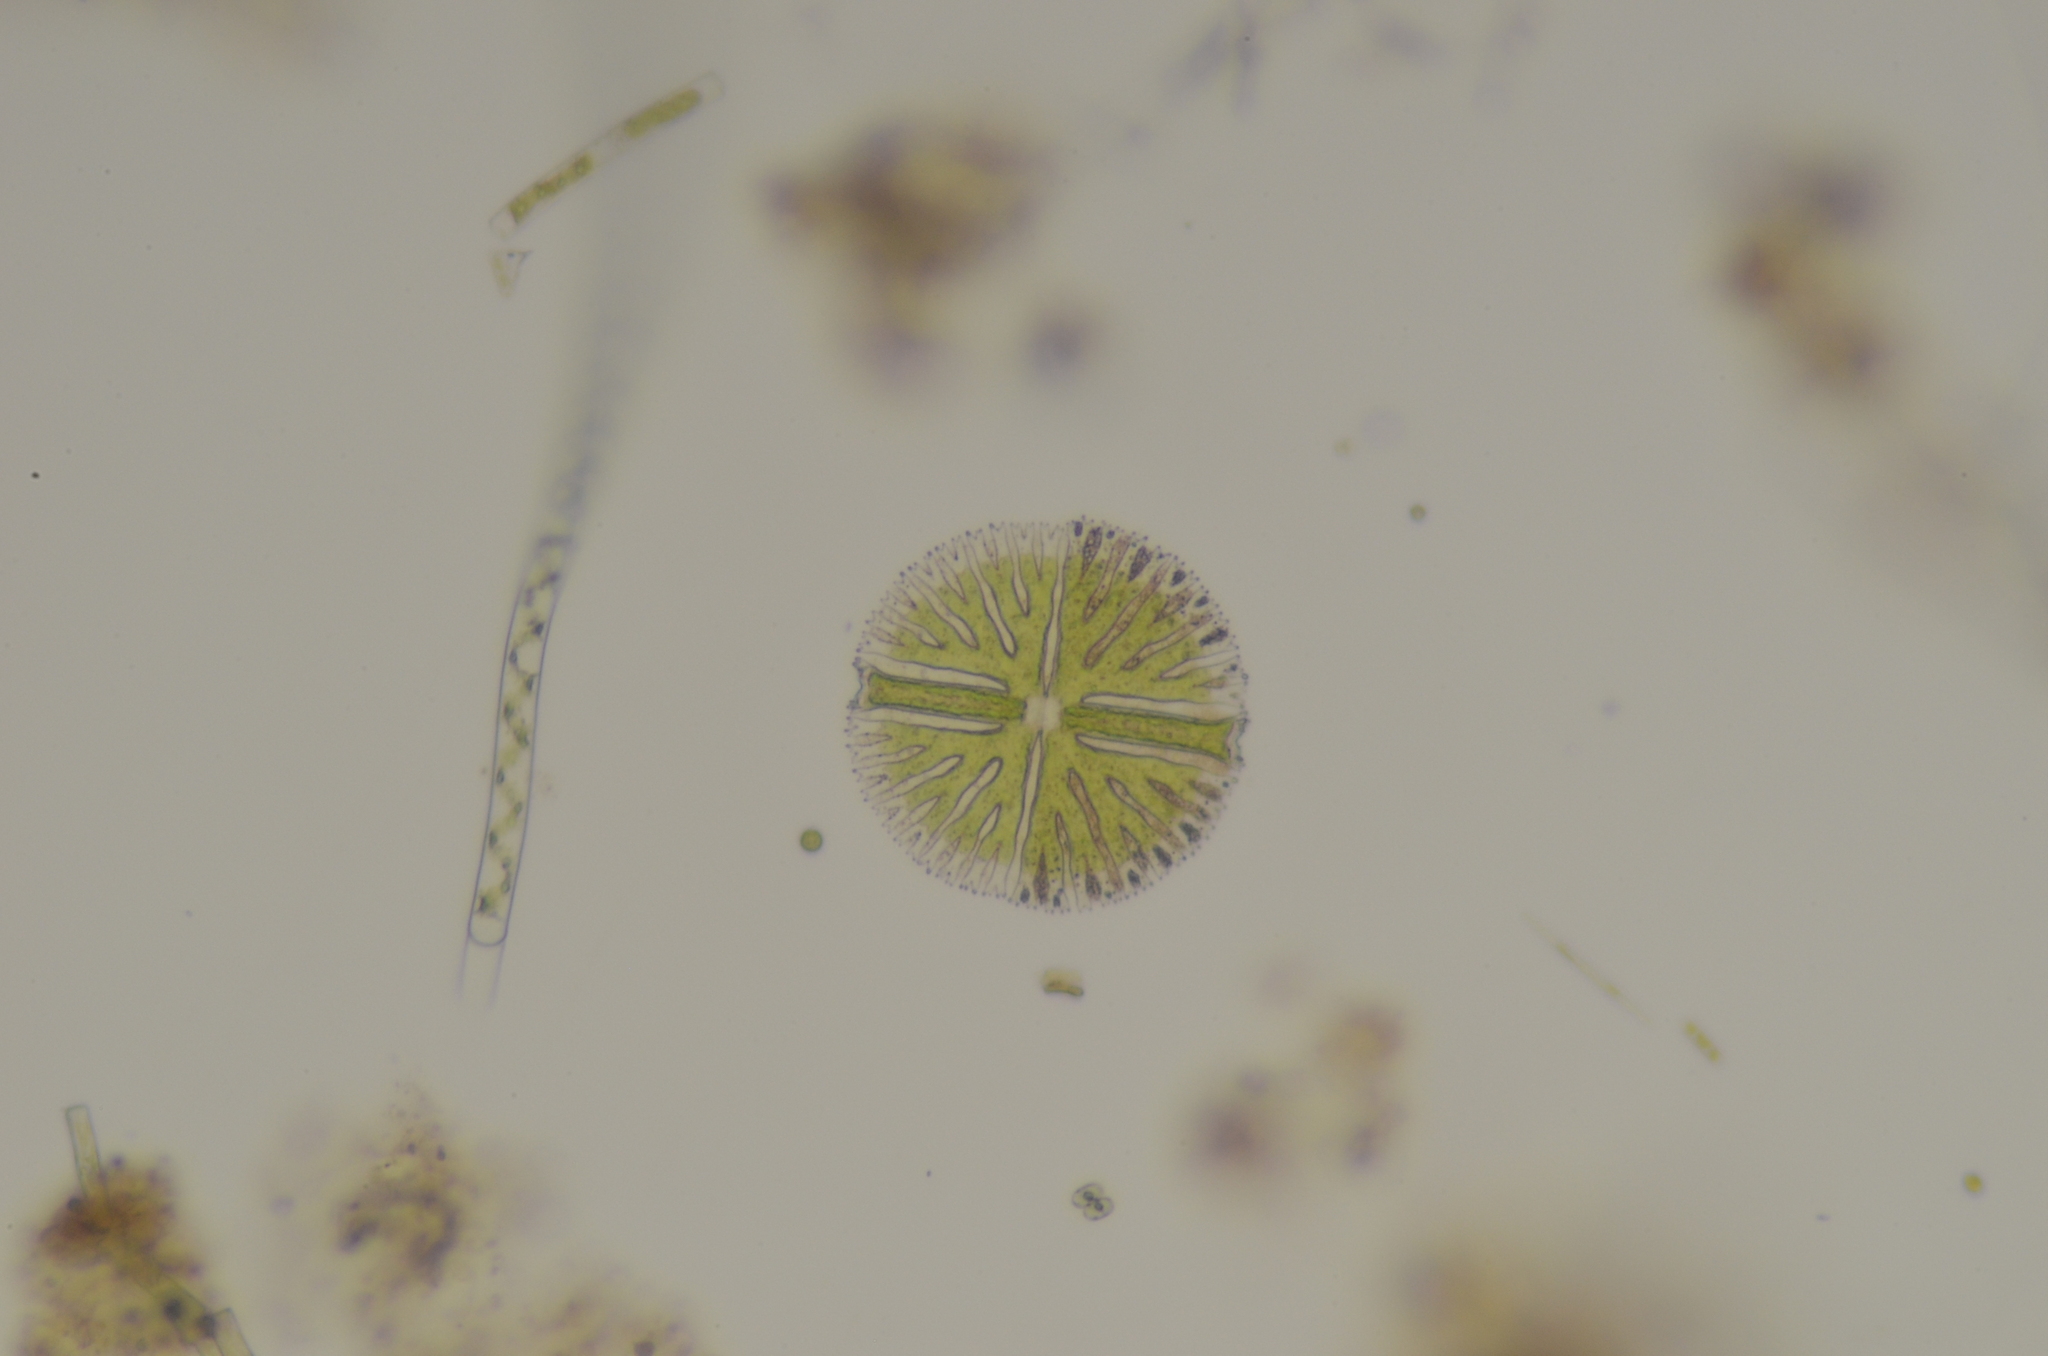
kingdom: Plantae
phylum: Charophyta
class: Conjugatophyceae
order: Desmidiales
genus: Micrasterias
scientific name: Micrasterias radiosa
